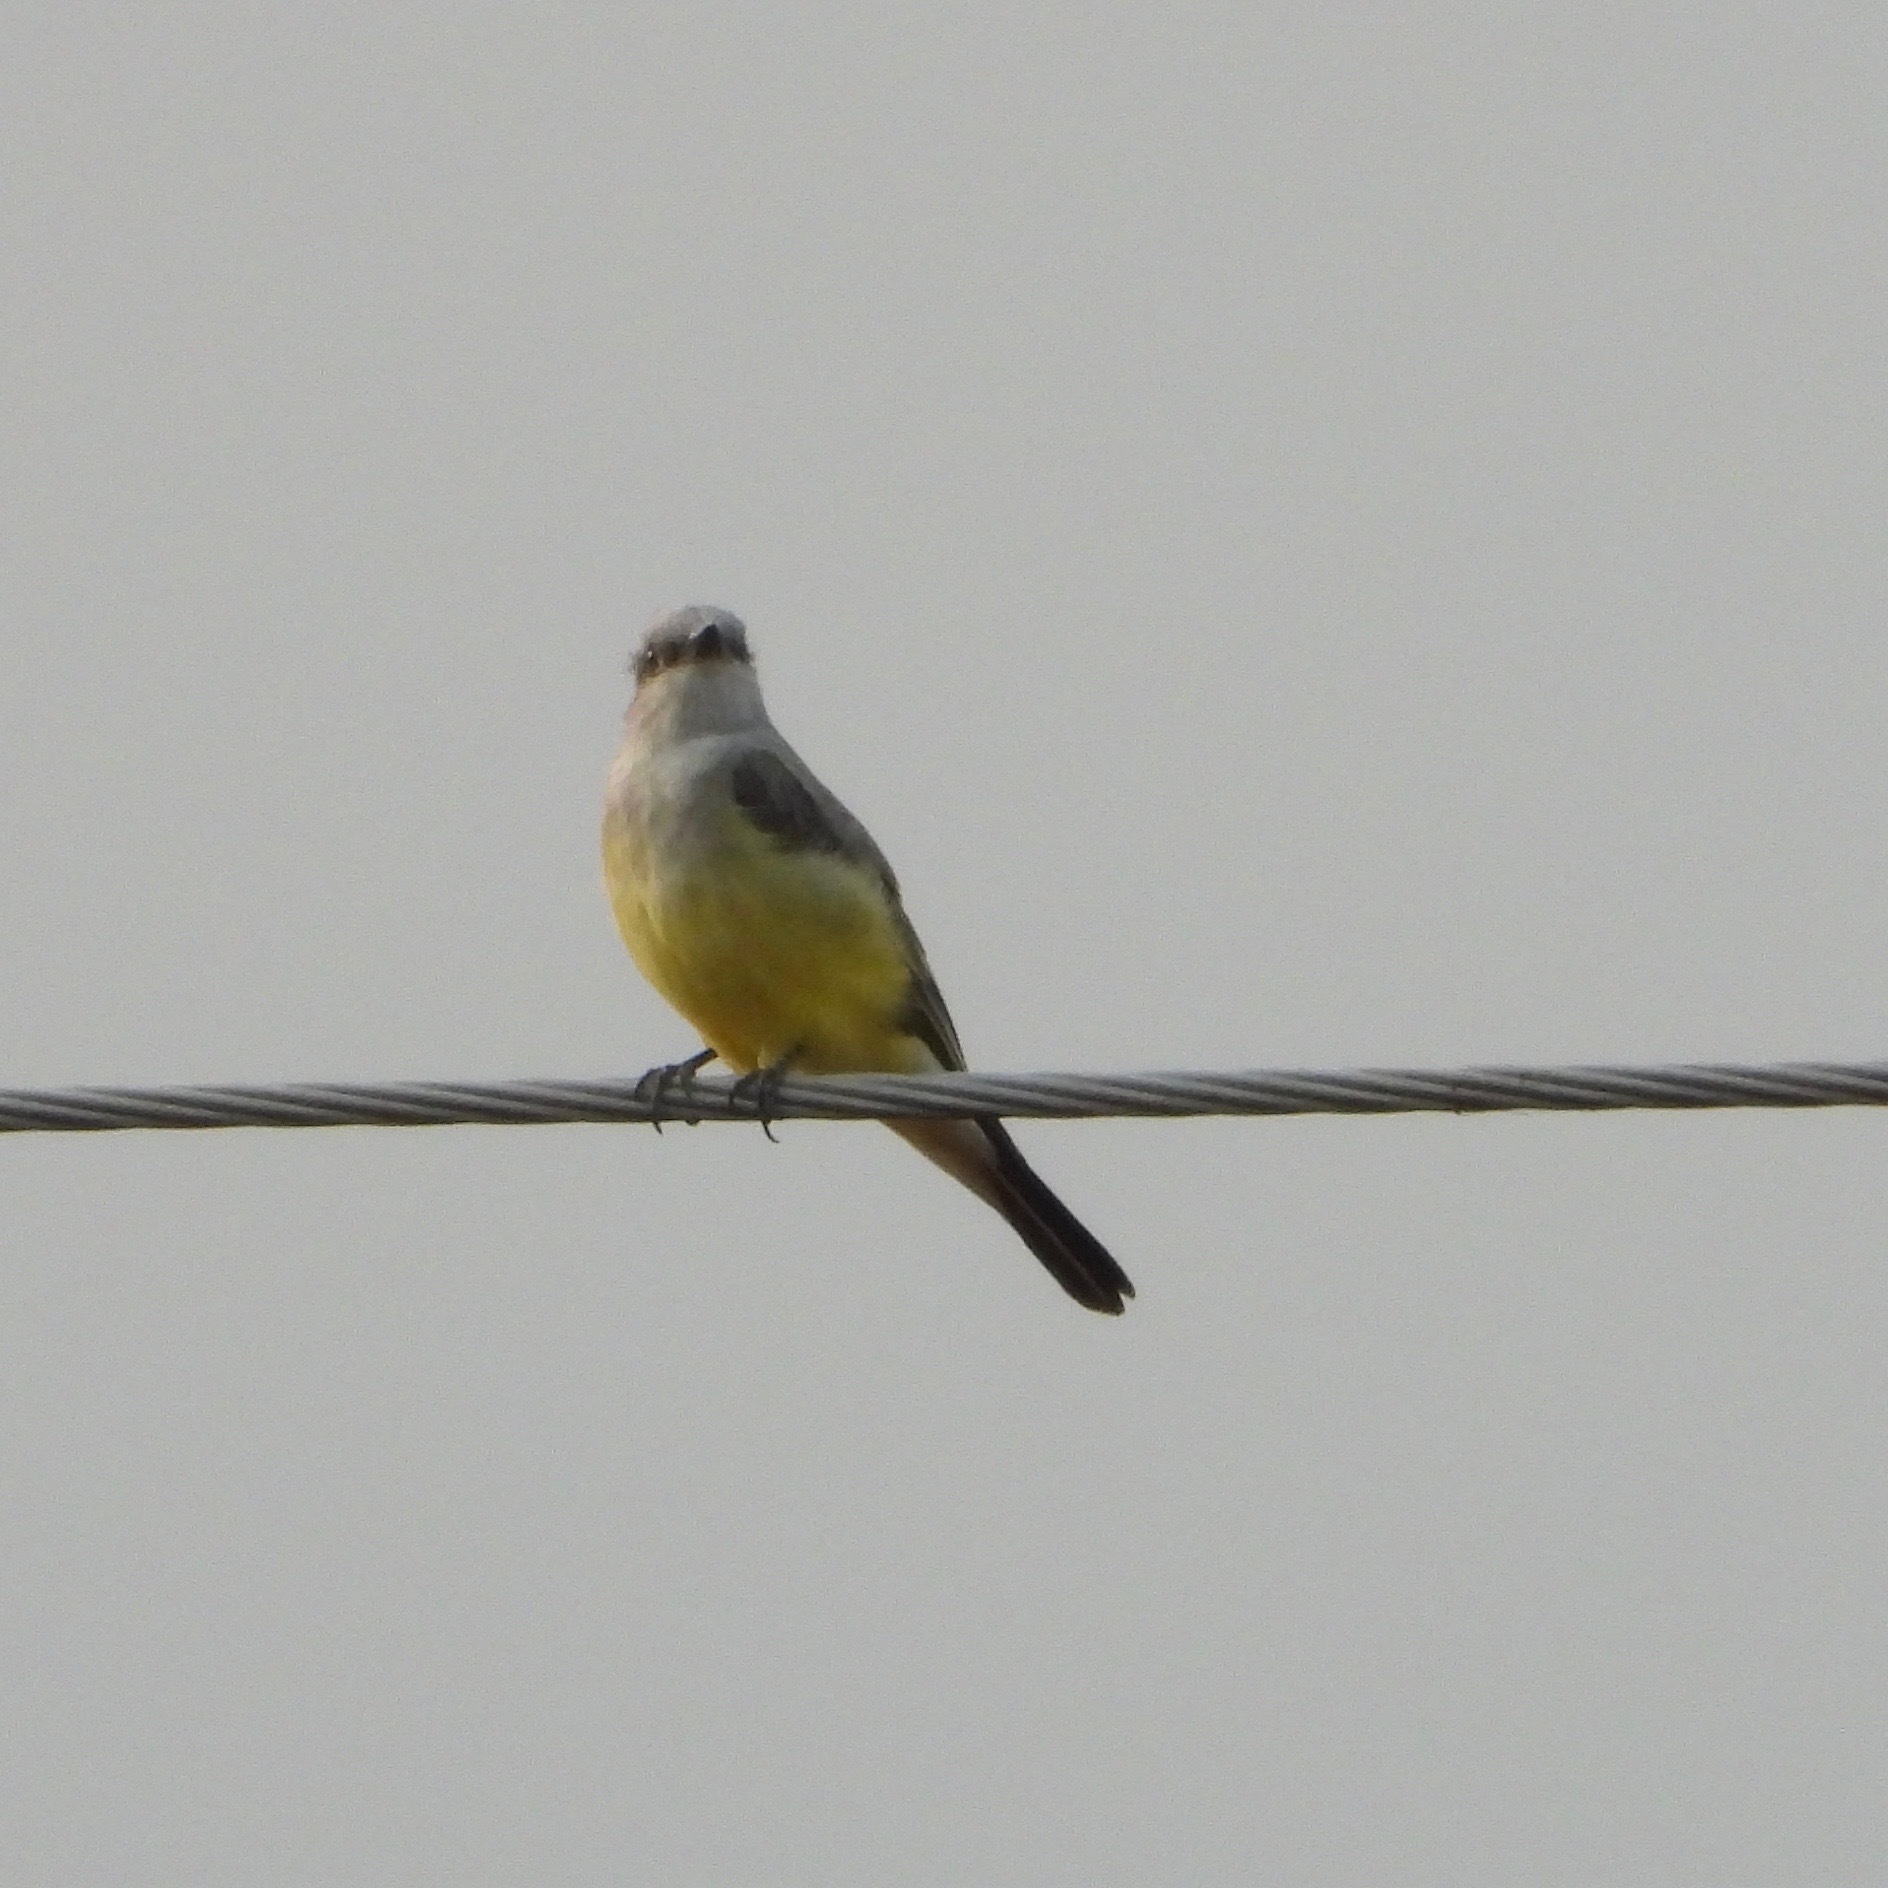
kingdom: Animalia
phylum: Chordata
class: Aves
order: Passeriformes
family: Tyrannidae
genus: Tyrannus
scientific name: Tyrannus verticalis
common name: Western kingbird
